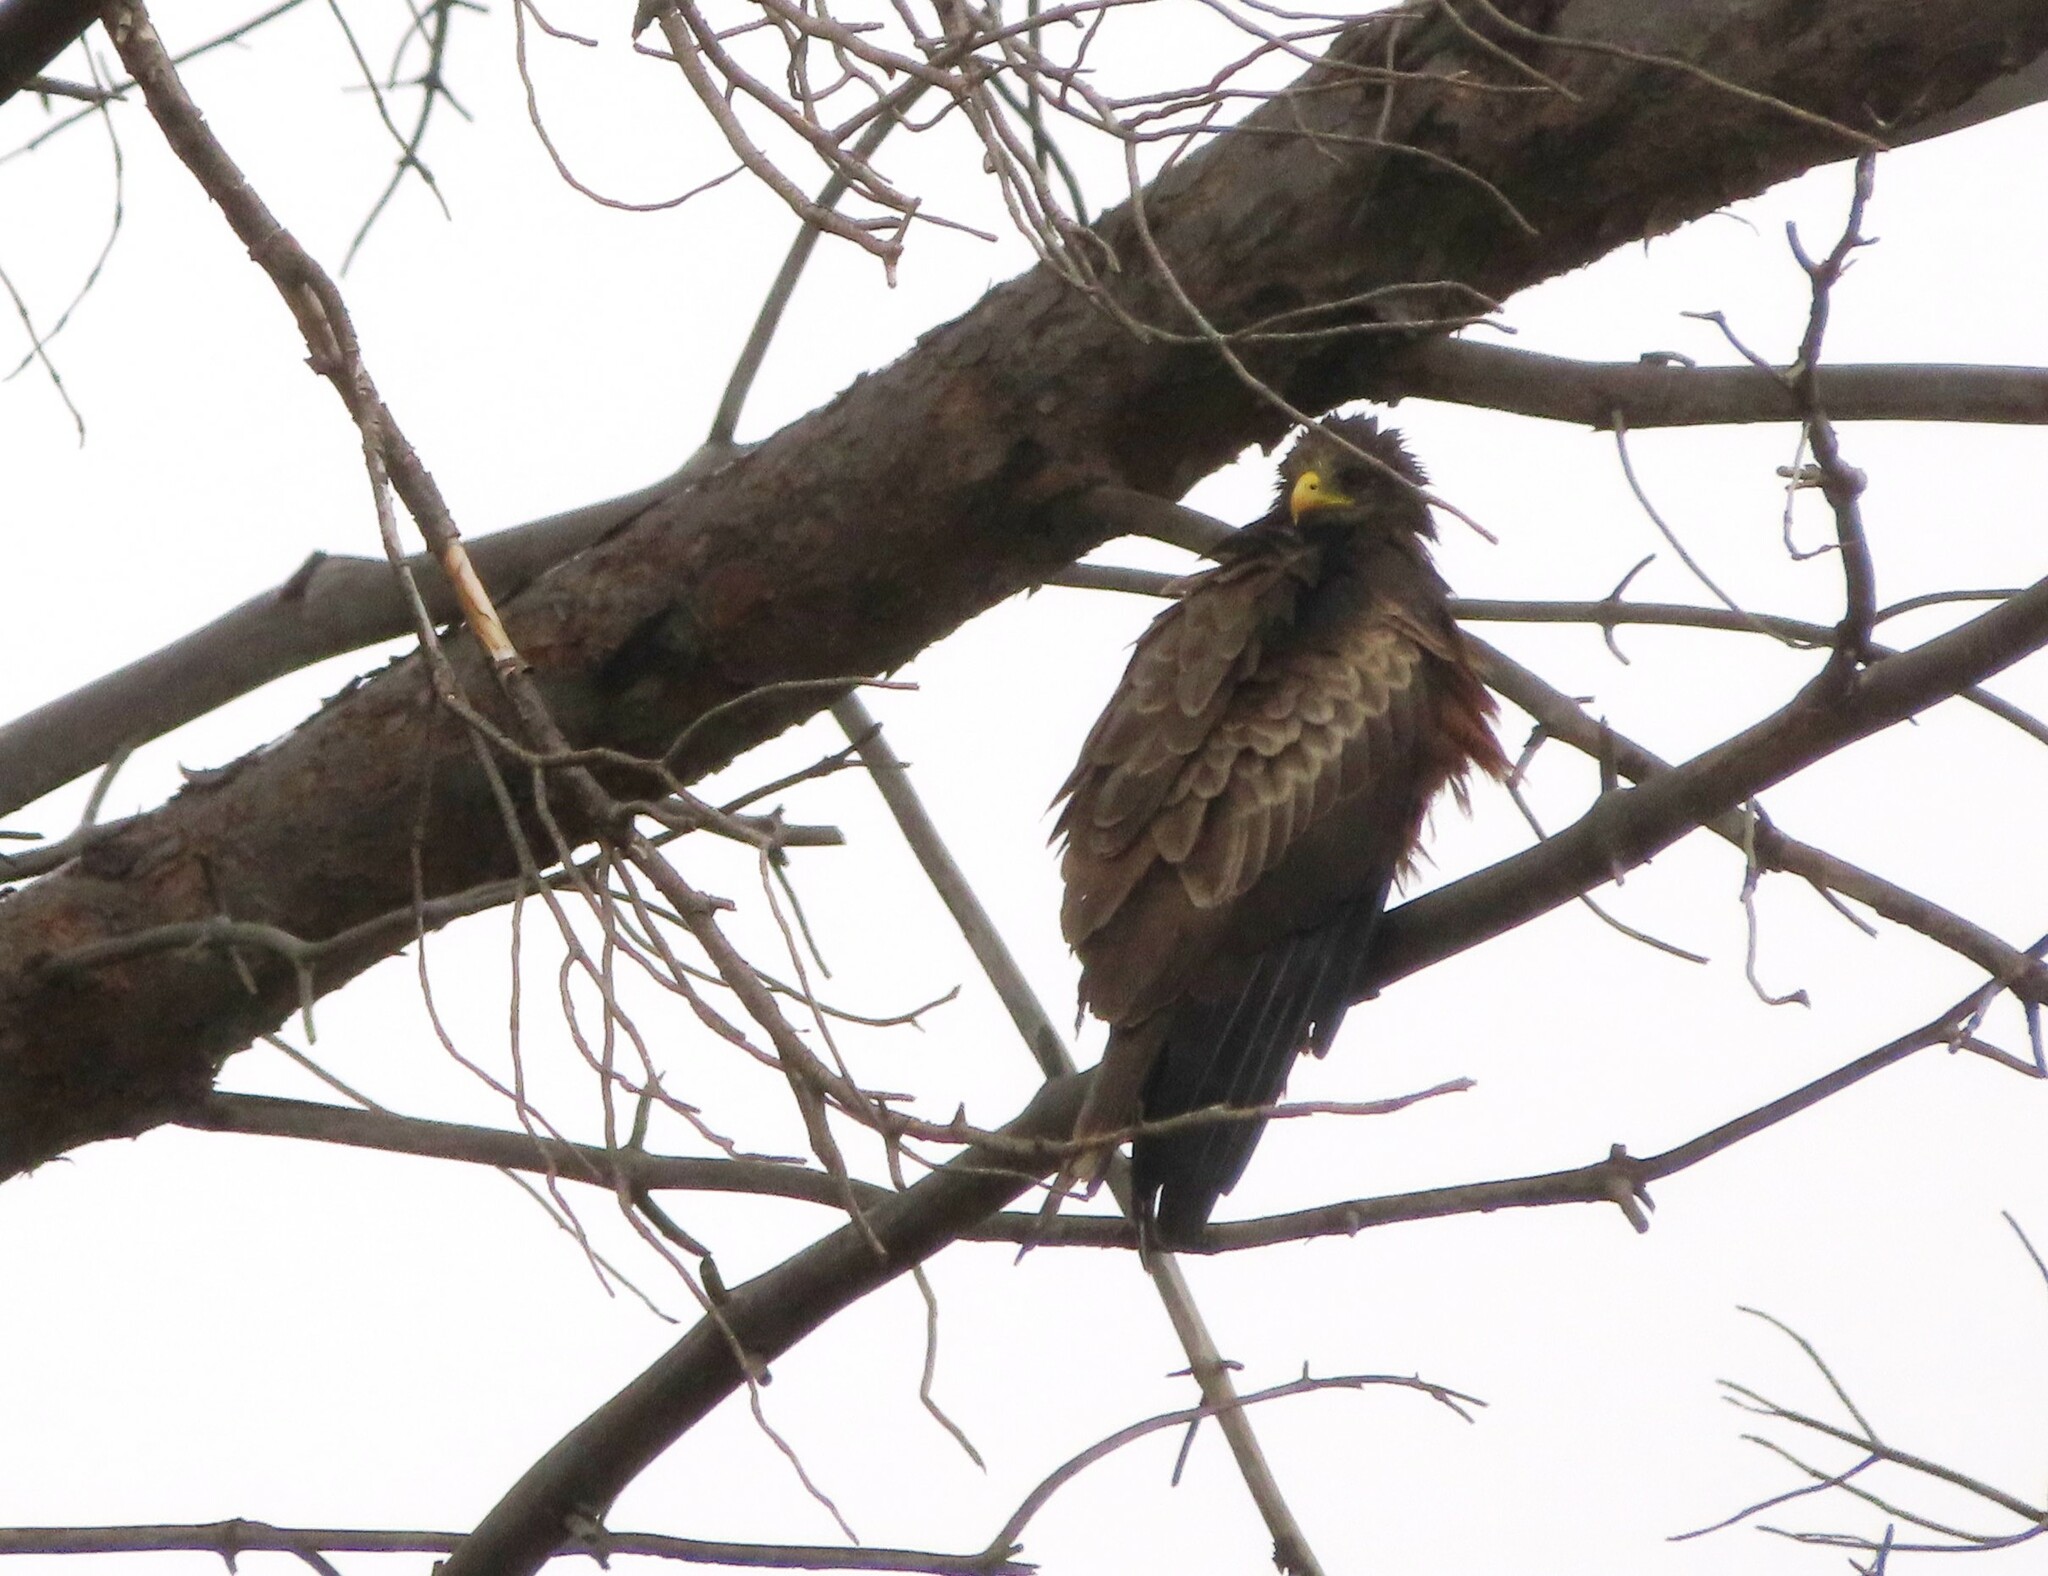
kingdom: Animalia
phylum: Chordata
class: Aves
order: Accipitriformes
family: Accipitridae
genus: Milvus
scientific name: Milvus migrans
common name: Black kite
